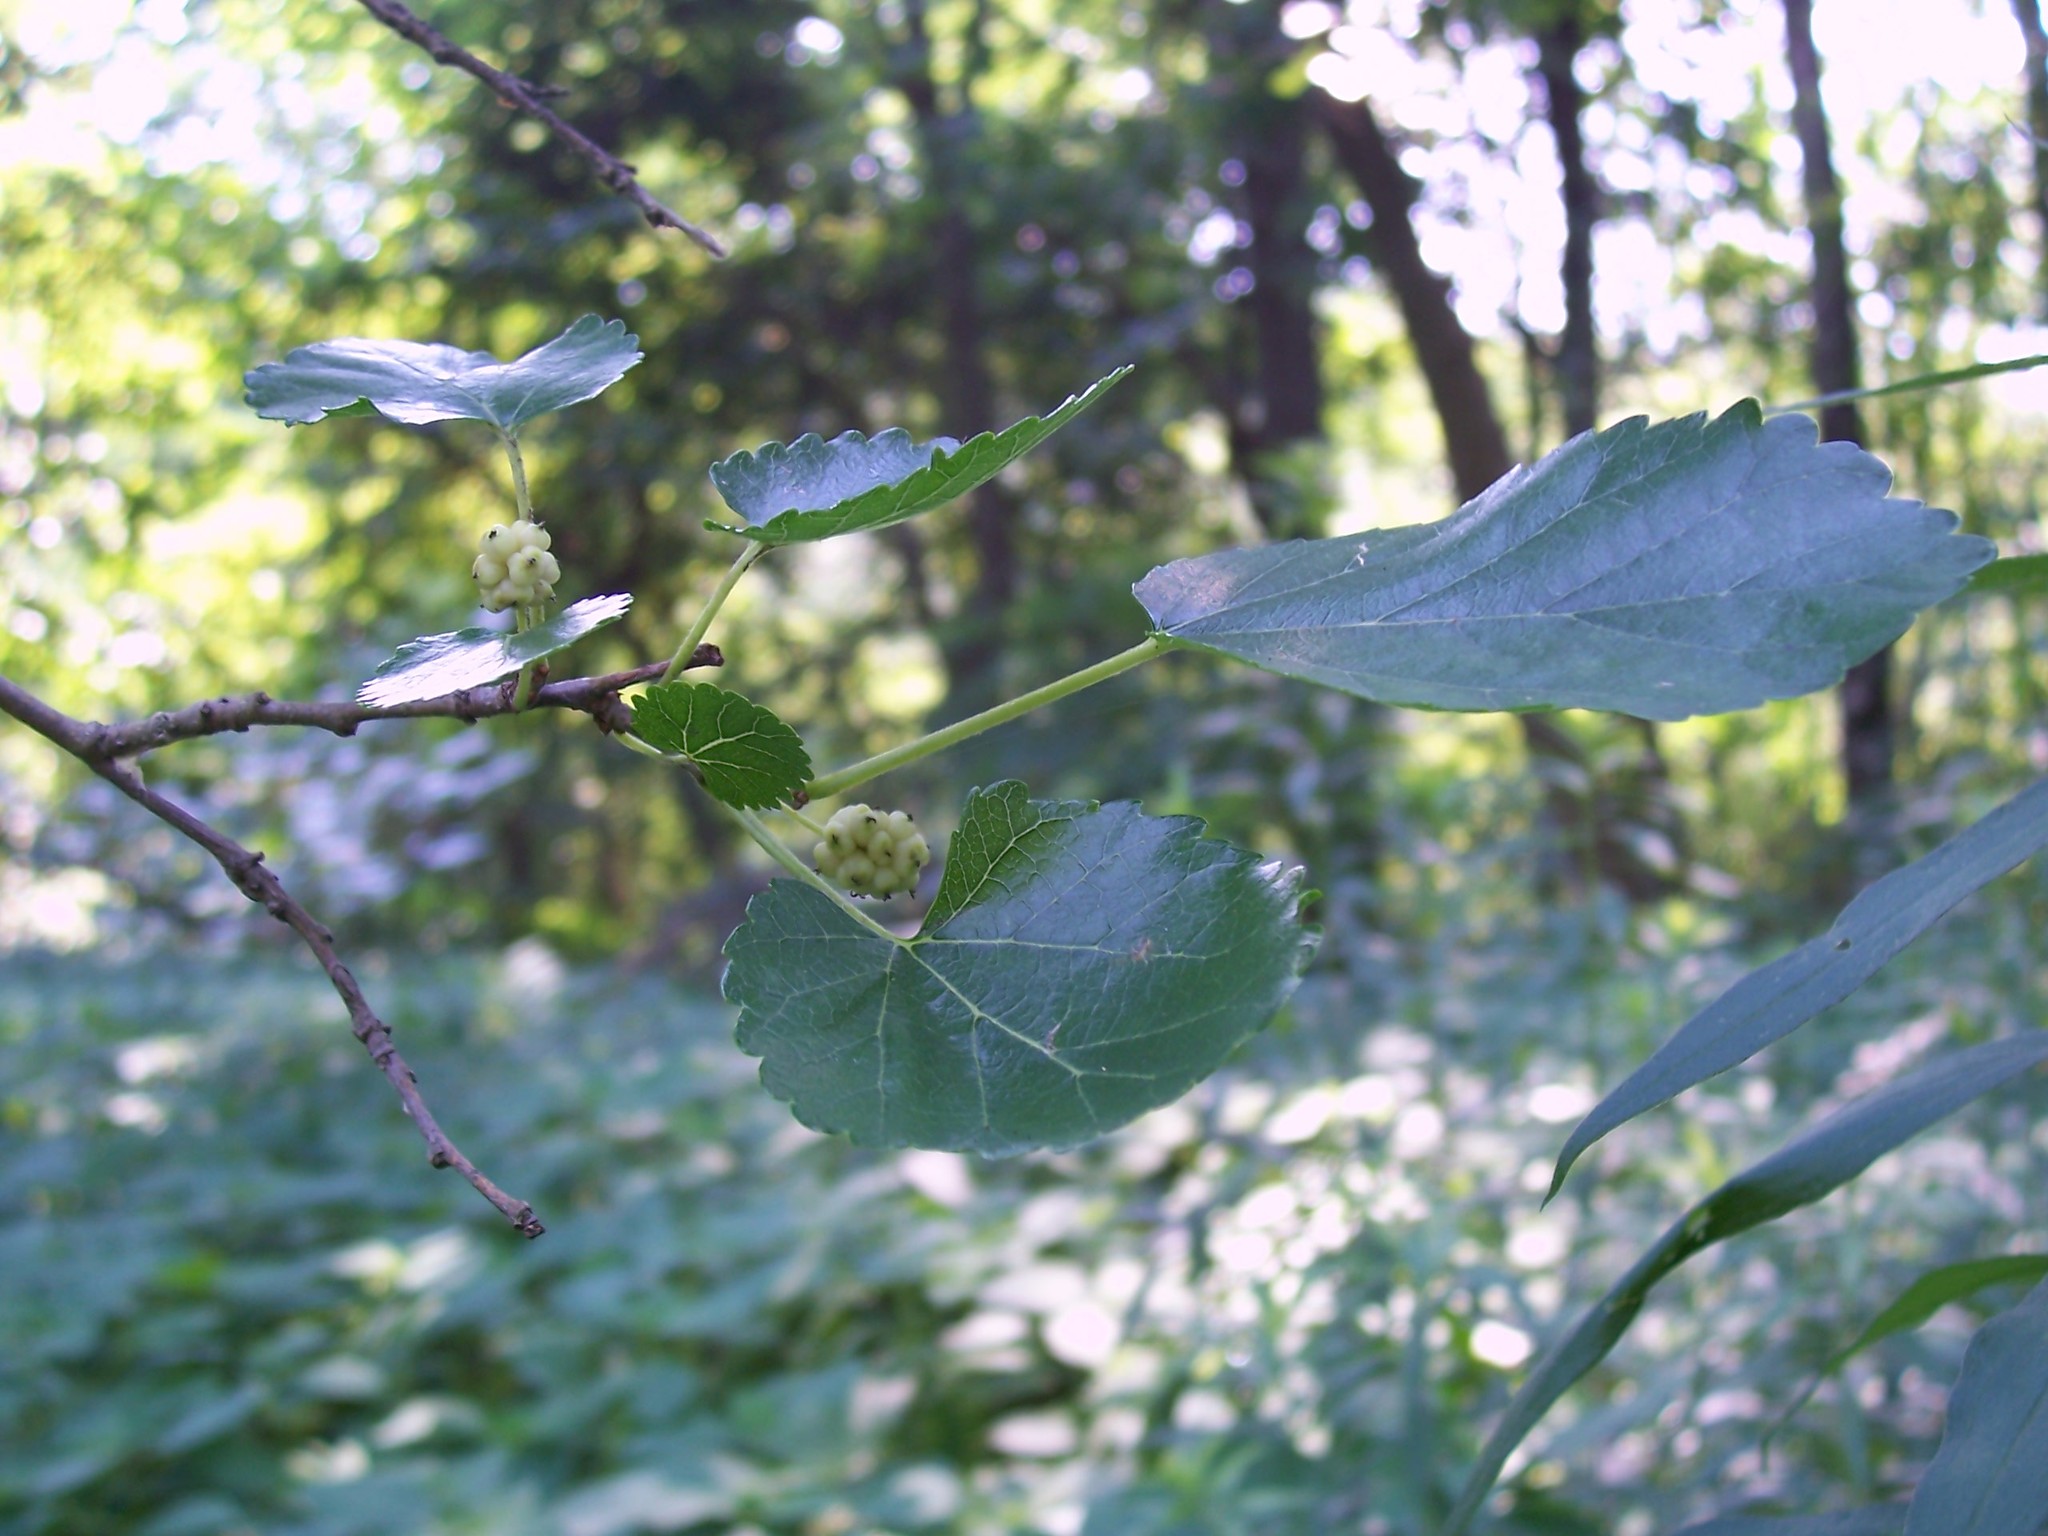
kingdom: Plantae
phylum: Tracheophyta
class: Magnoliopsida
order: Rosales
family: Moraceae
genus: Morus
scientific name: Morus alba
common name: White mulberry
